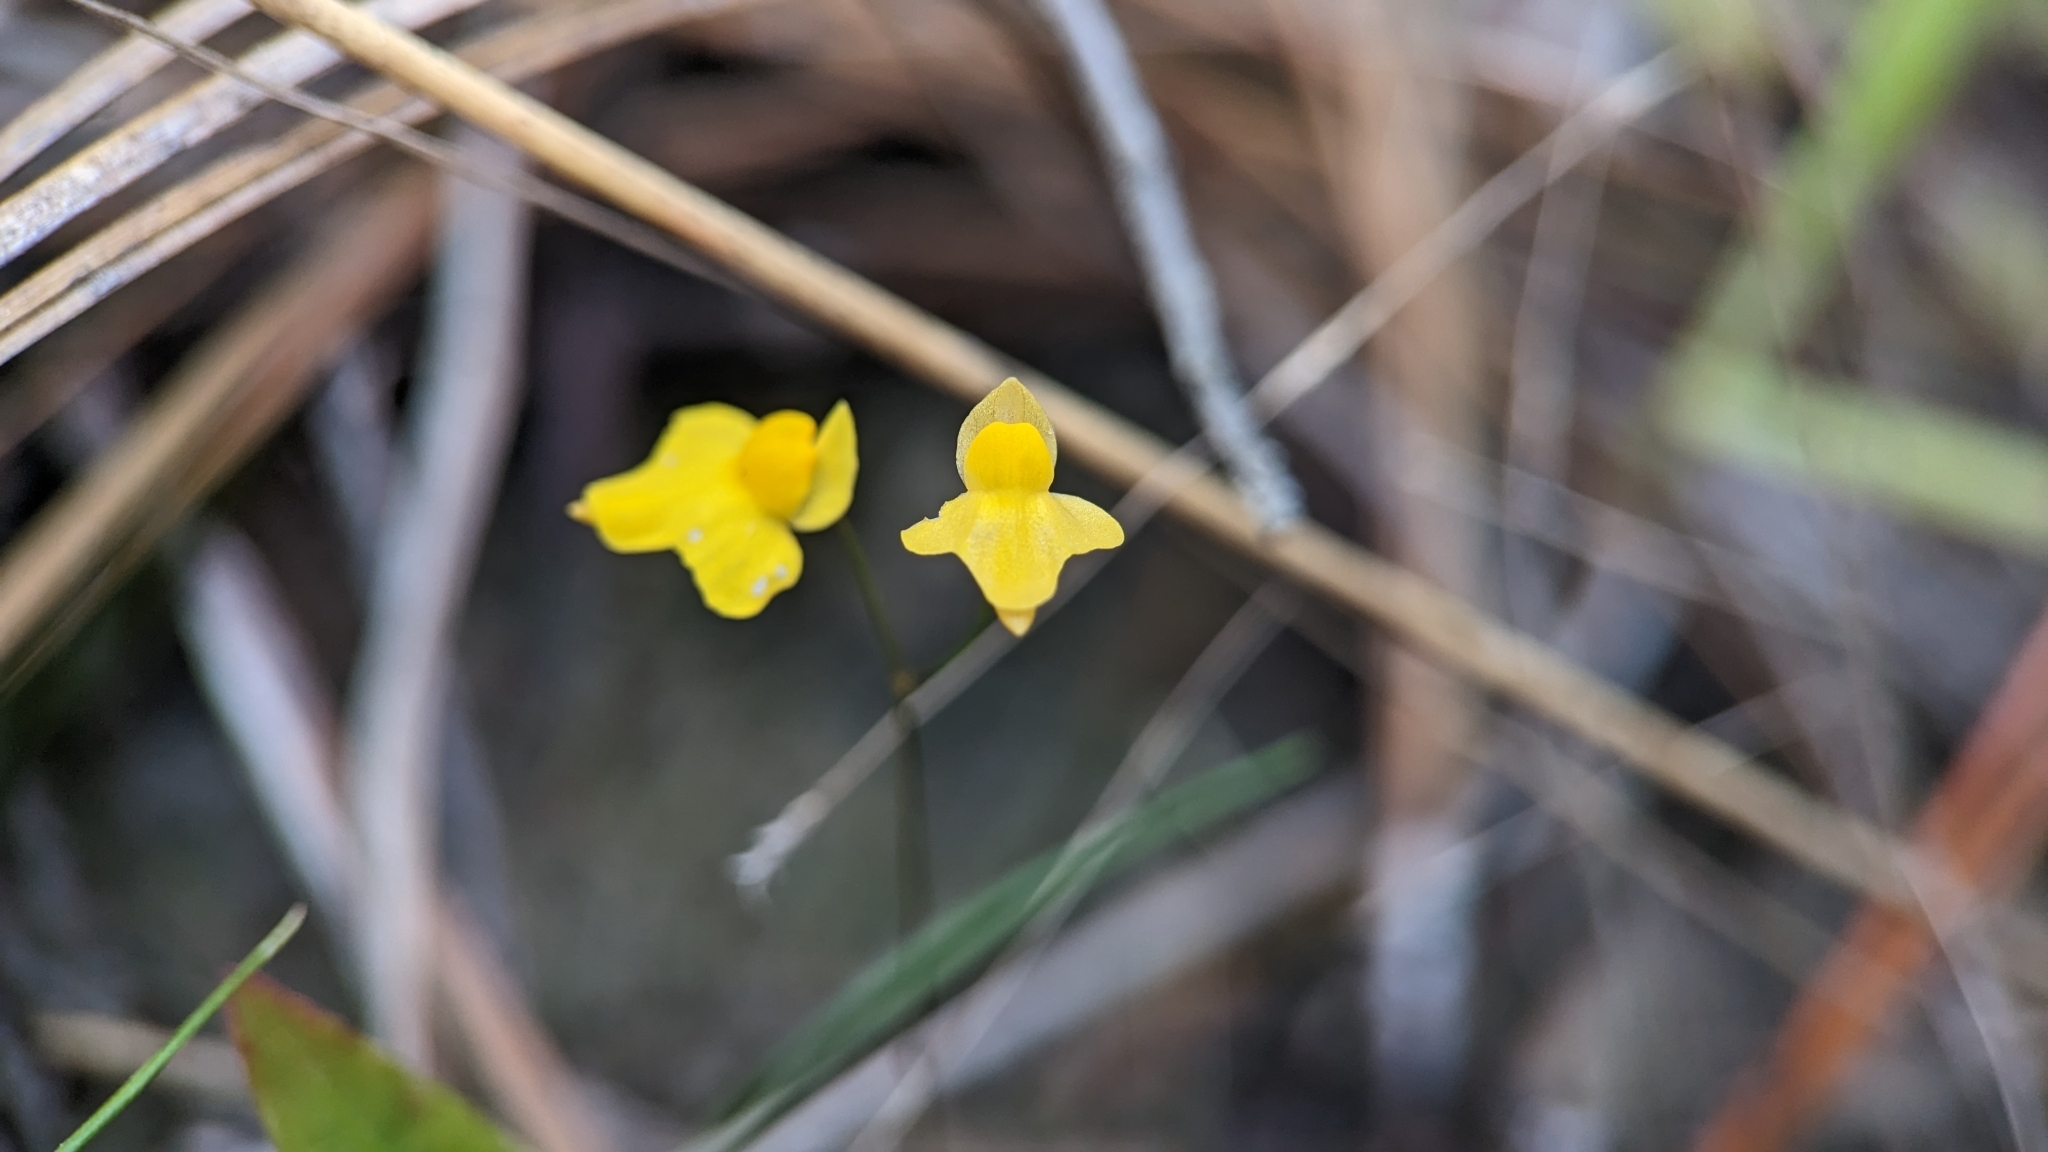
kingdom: Plantae
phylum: Tracheophyta
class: Magnoliopsida
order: Lamiales
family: Lentibulariaceae
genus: Utricularia
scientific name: Utricularia subulata
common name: Tiny bladderwort
